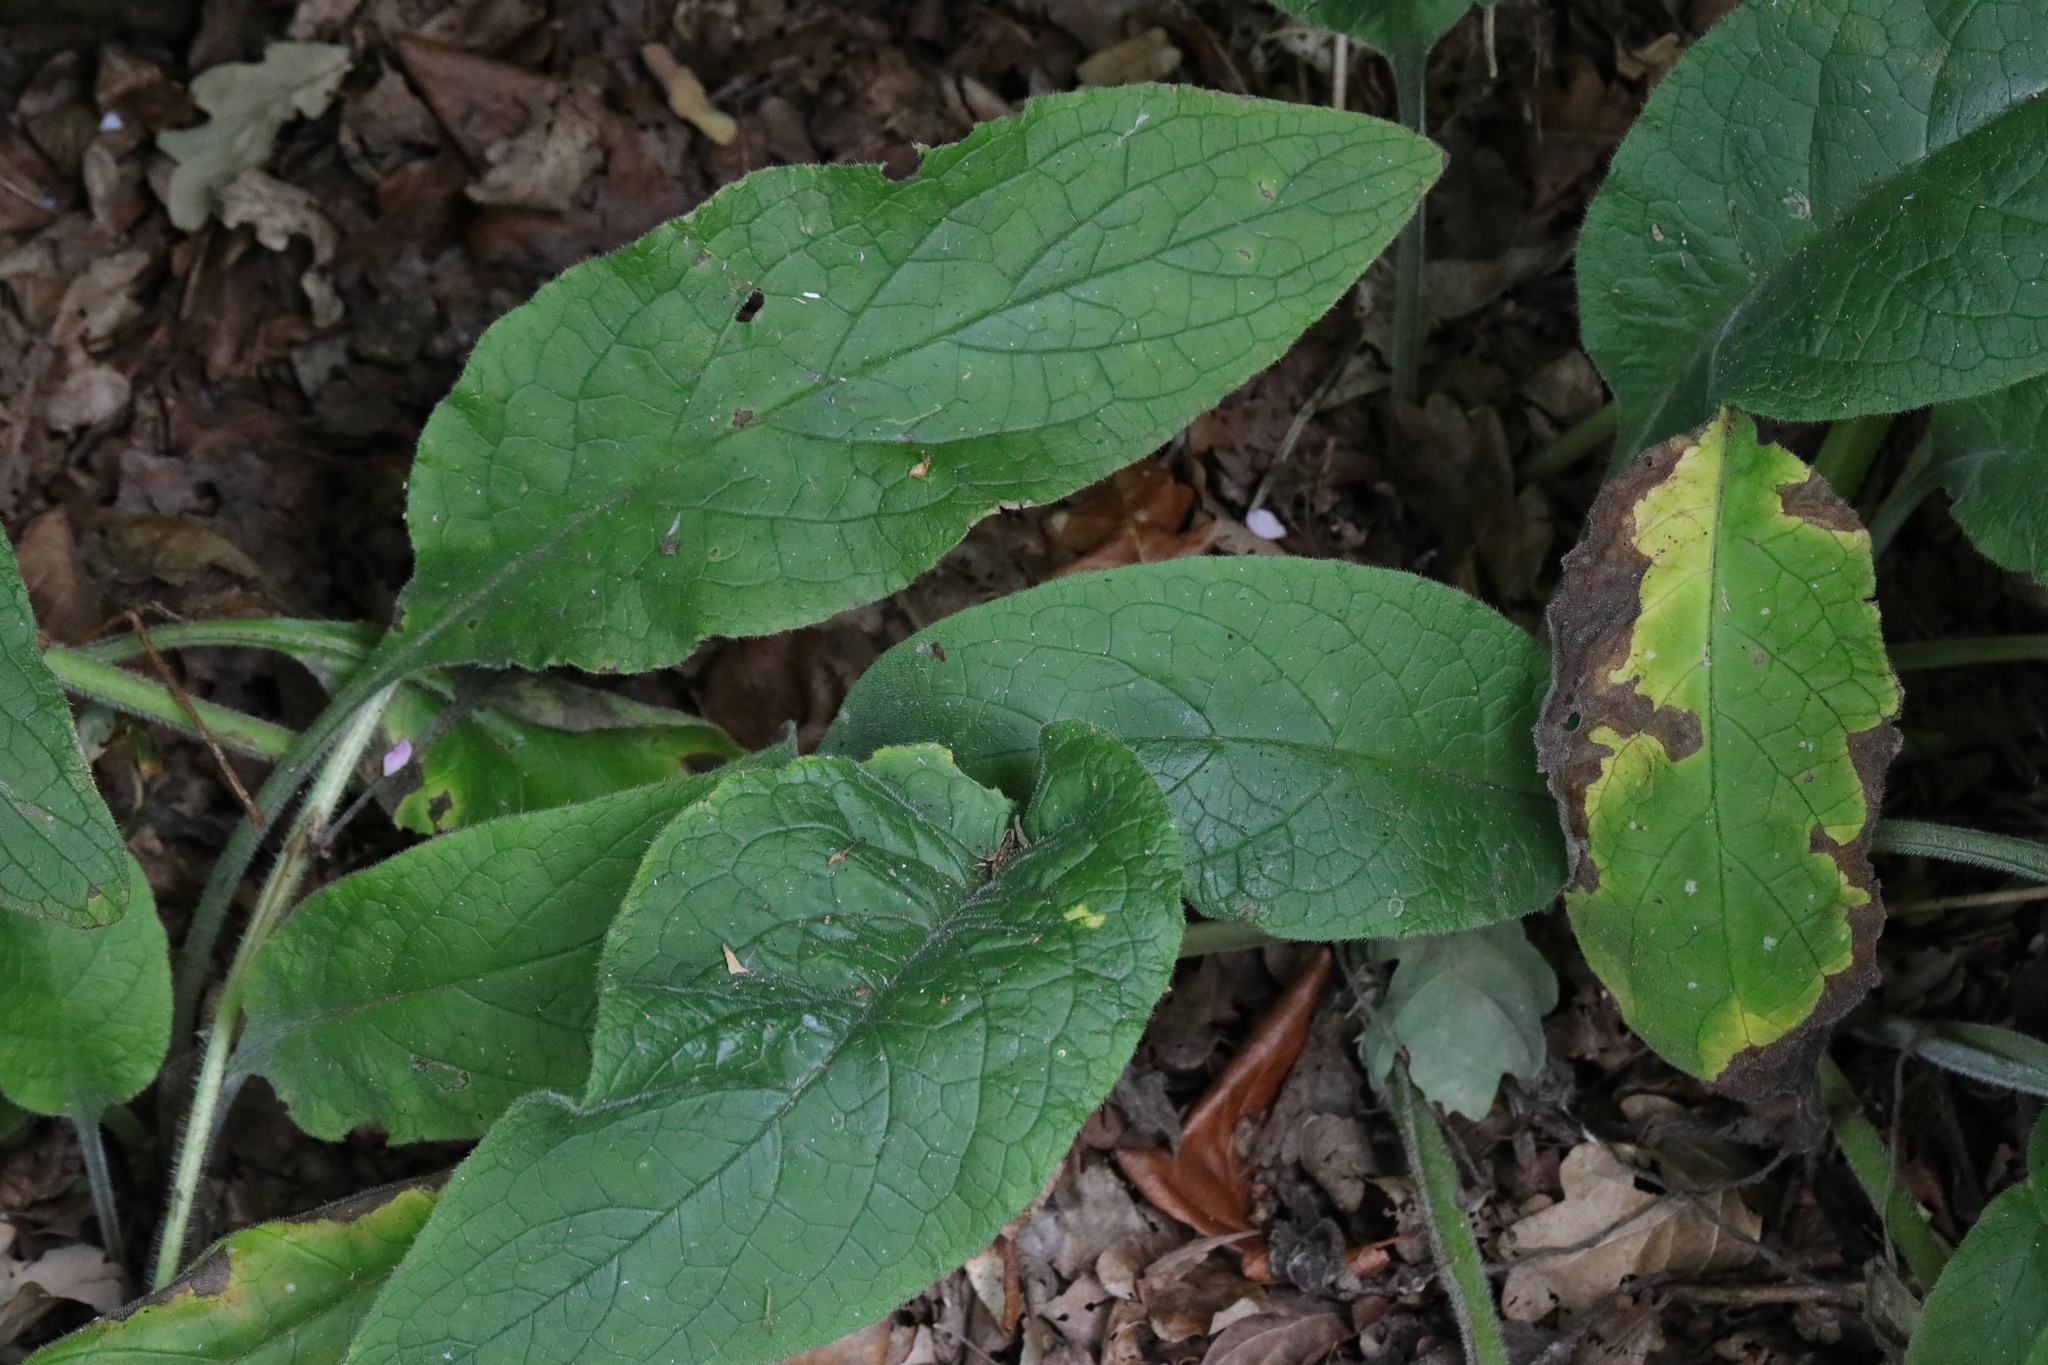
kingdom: Plantae
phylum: Tracheophyta
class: Magnoliopsida
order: Boraginales
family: Boraginaceae
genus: Pentaglottis
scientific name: Pentaglottis sempervirens
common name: Green alkanet
